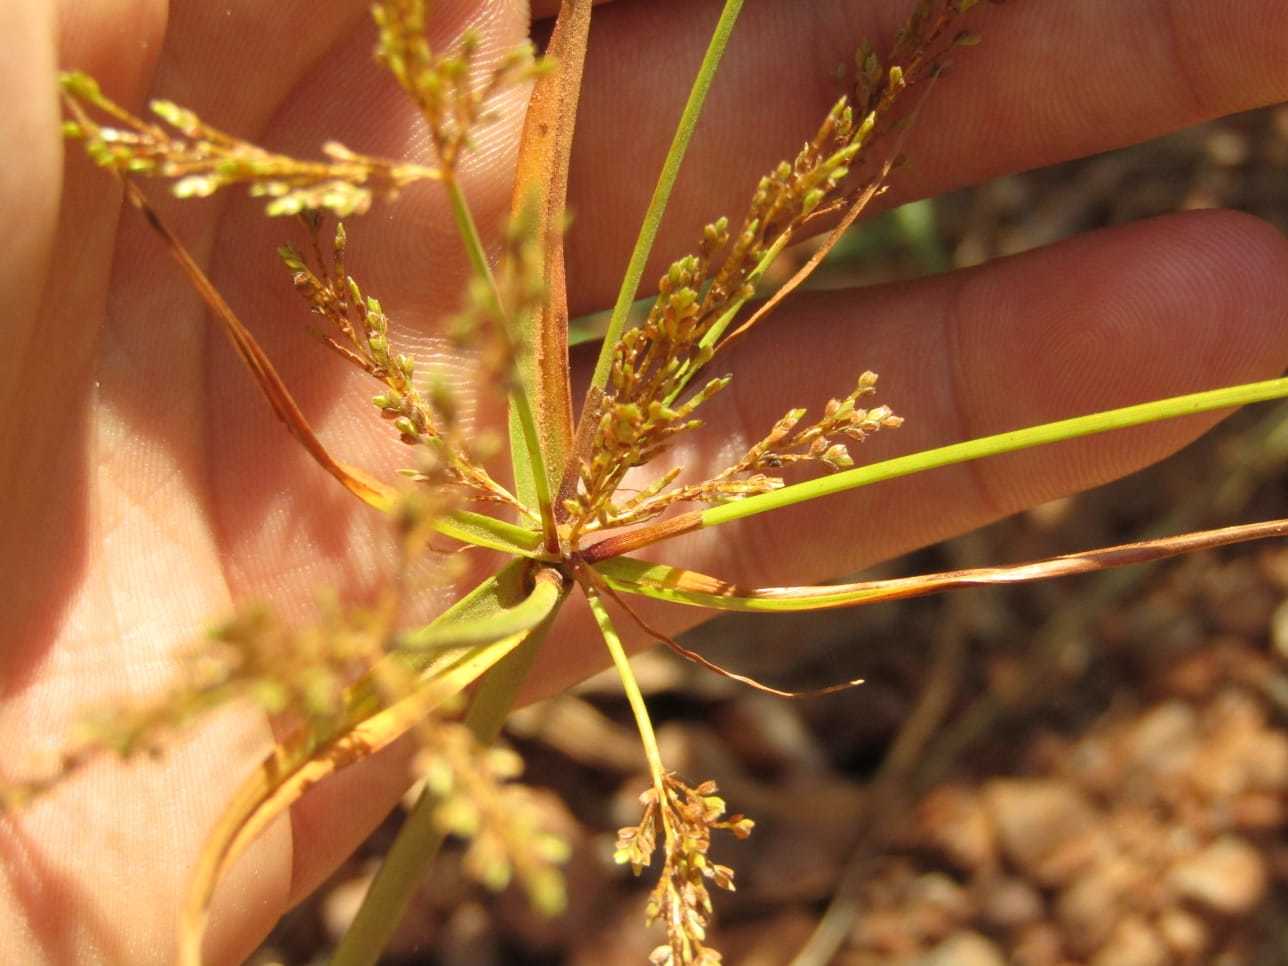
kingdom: Plantae
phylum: Tracheophyta
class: Liliopsida
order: Poales
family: Cyperaceae
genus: Cyperus
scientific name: Cyperus iria
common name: Ricefield flatsedge
